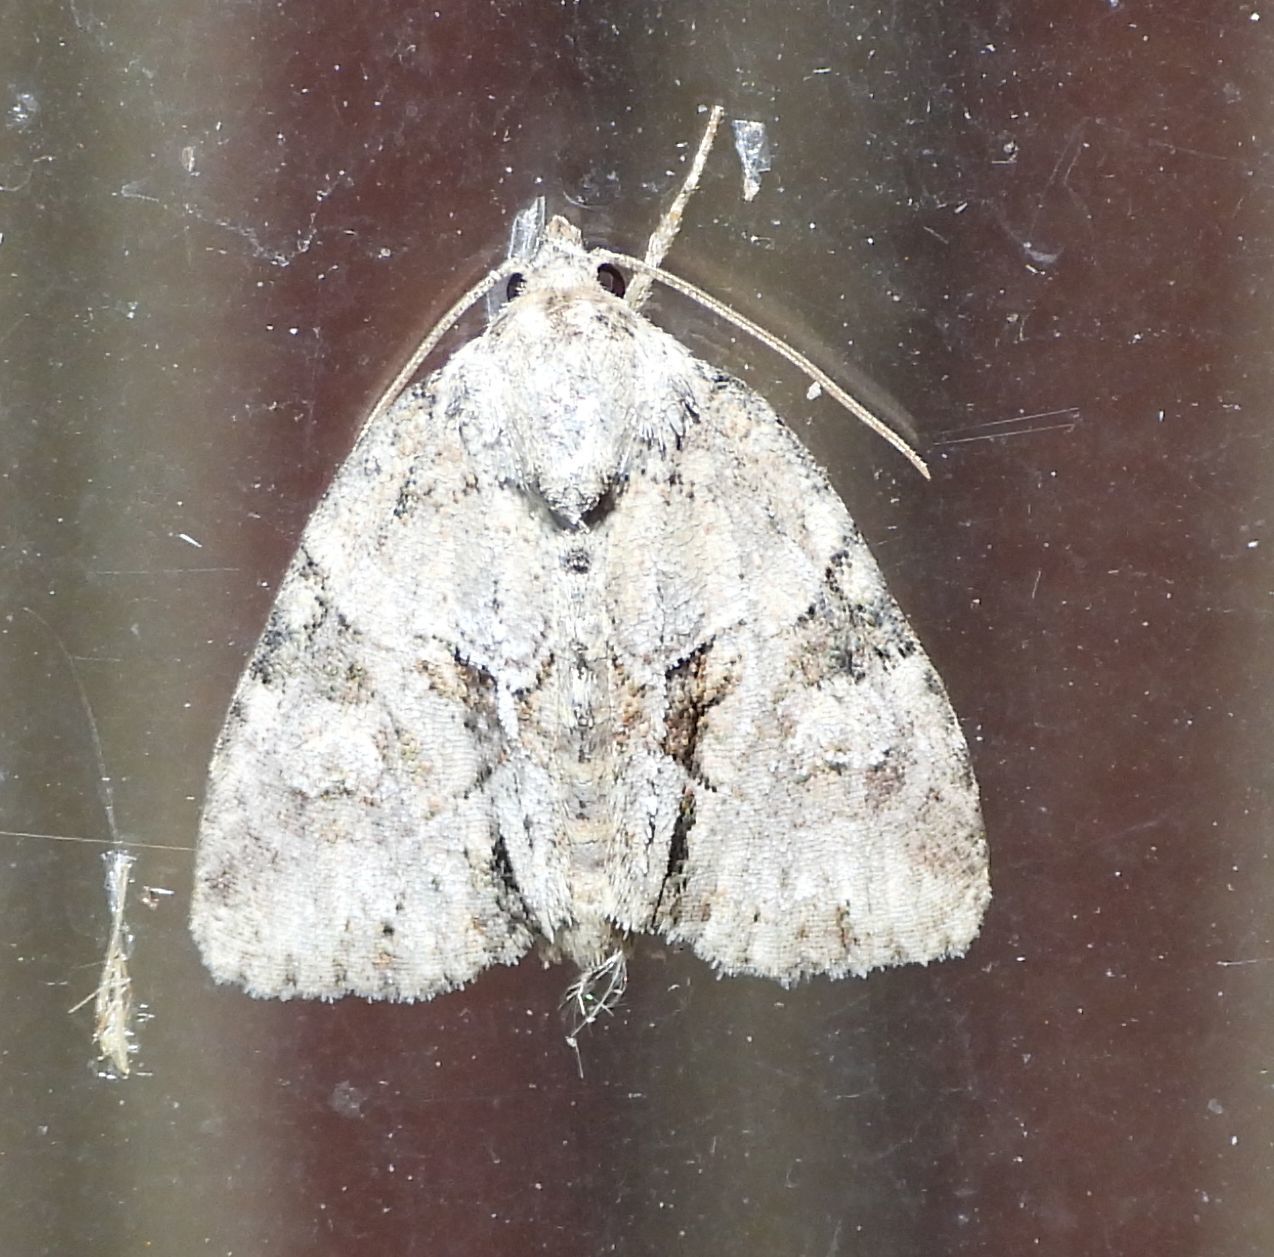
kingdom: Animalia
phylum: Arthropoda
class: Insecta
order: Lepidoptera
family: Noctuidae
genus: Neoligia
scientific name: Neoligia exhausta
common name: Exhausted brocade
